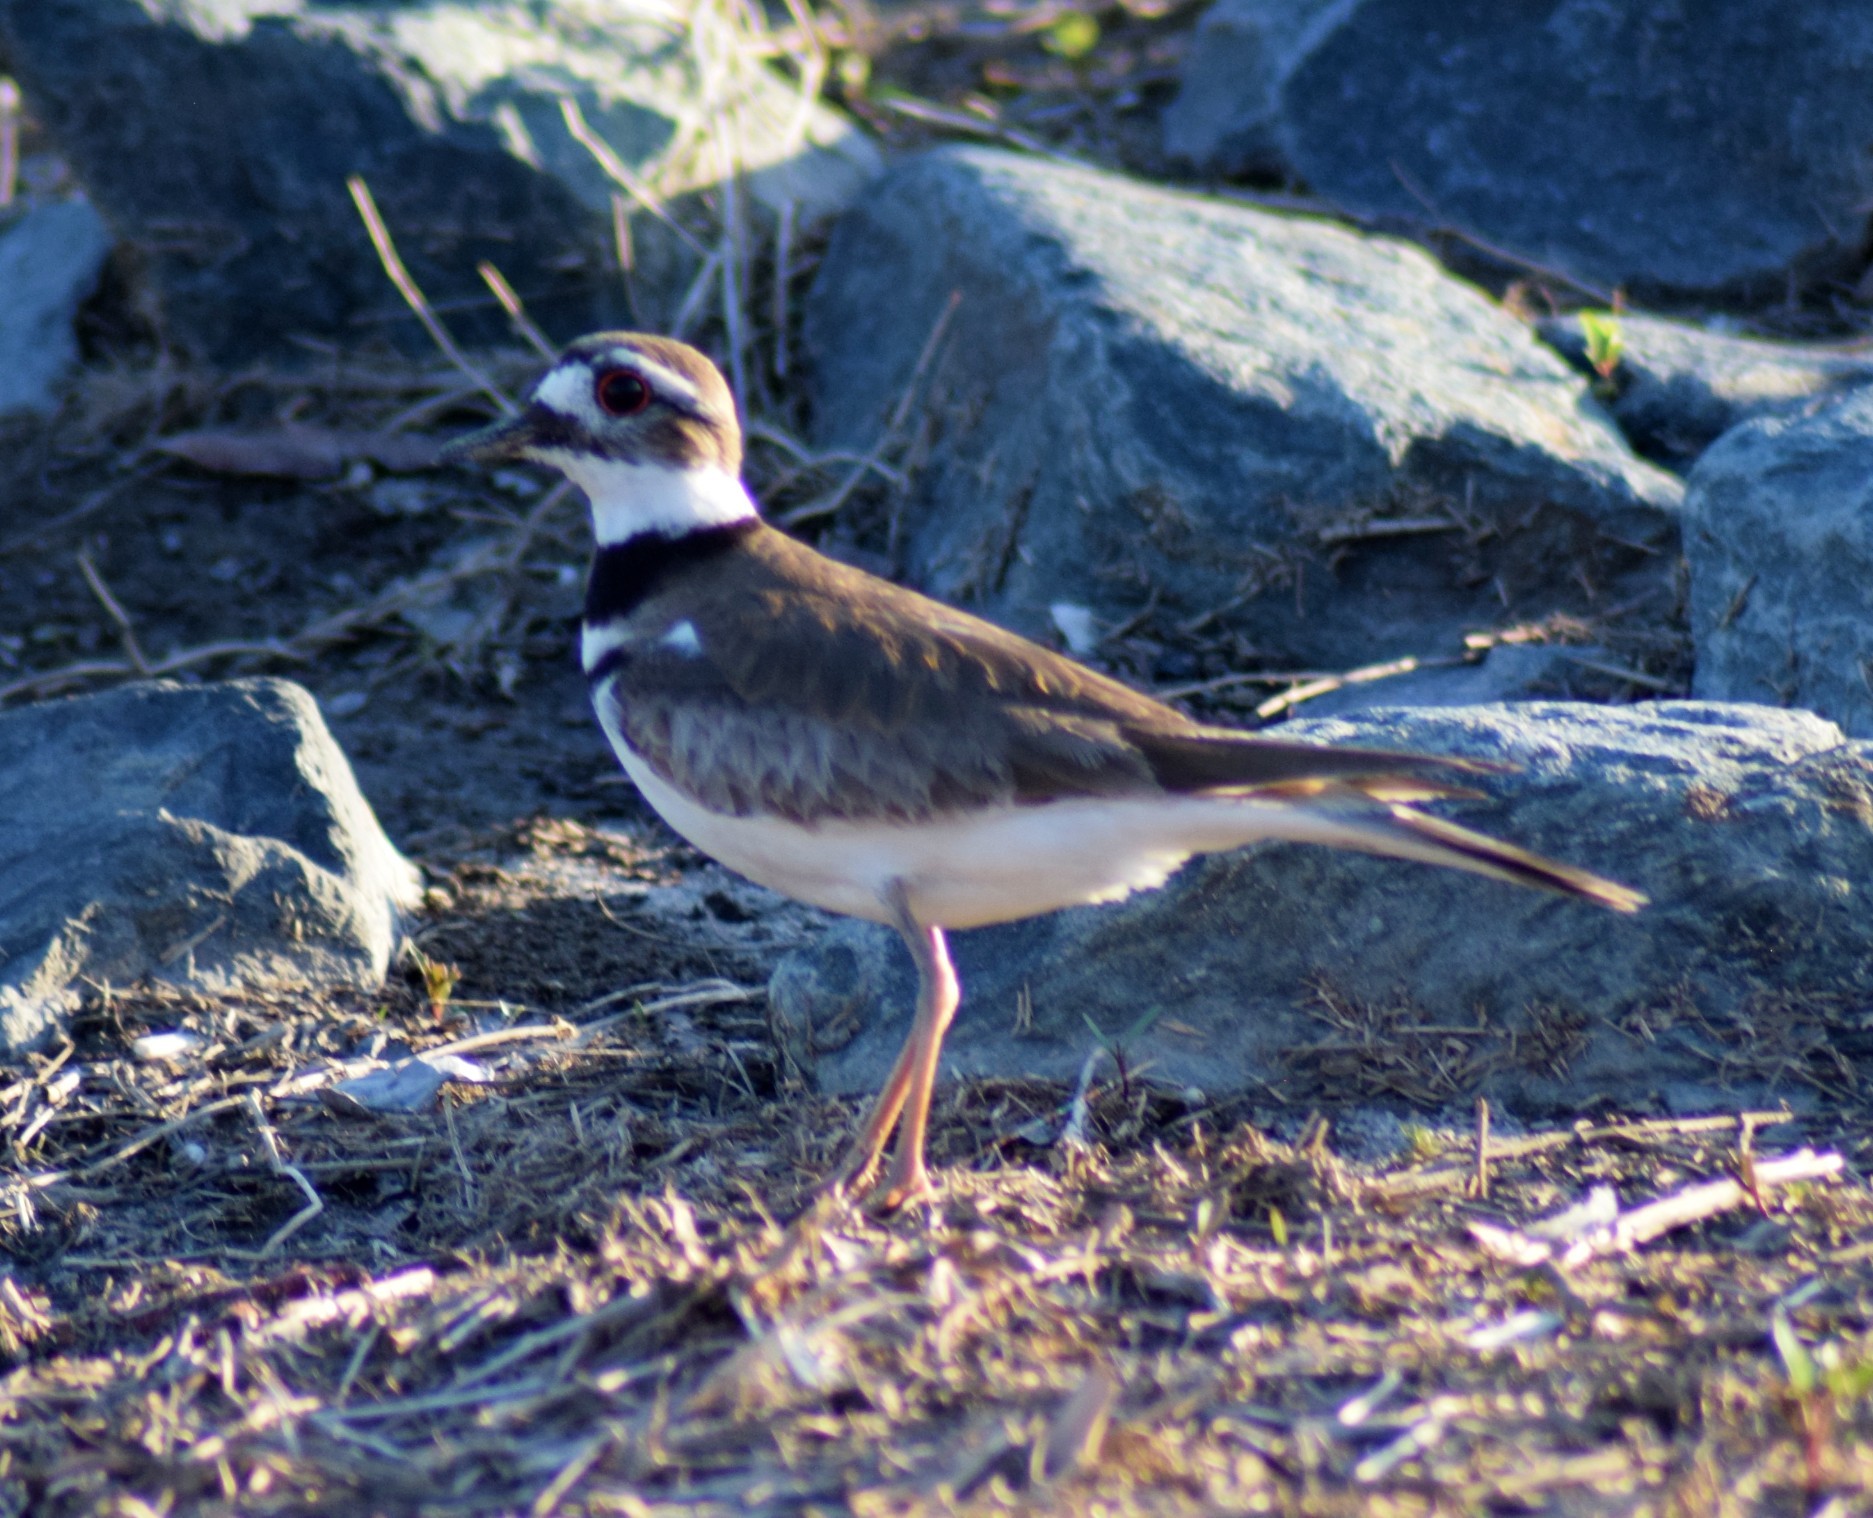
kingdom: Animalia
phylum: Chordata
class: Aves
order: Charadriiformes
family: Charadriidae
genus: Charadrius
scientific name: Charadrius vociferus
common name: Killdeer
